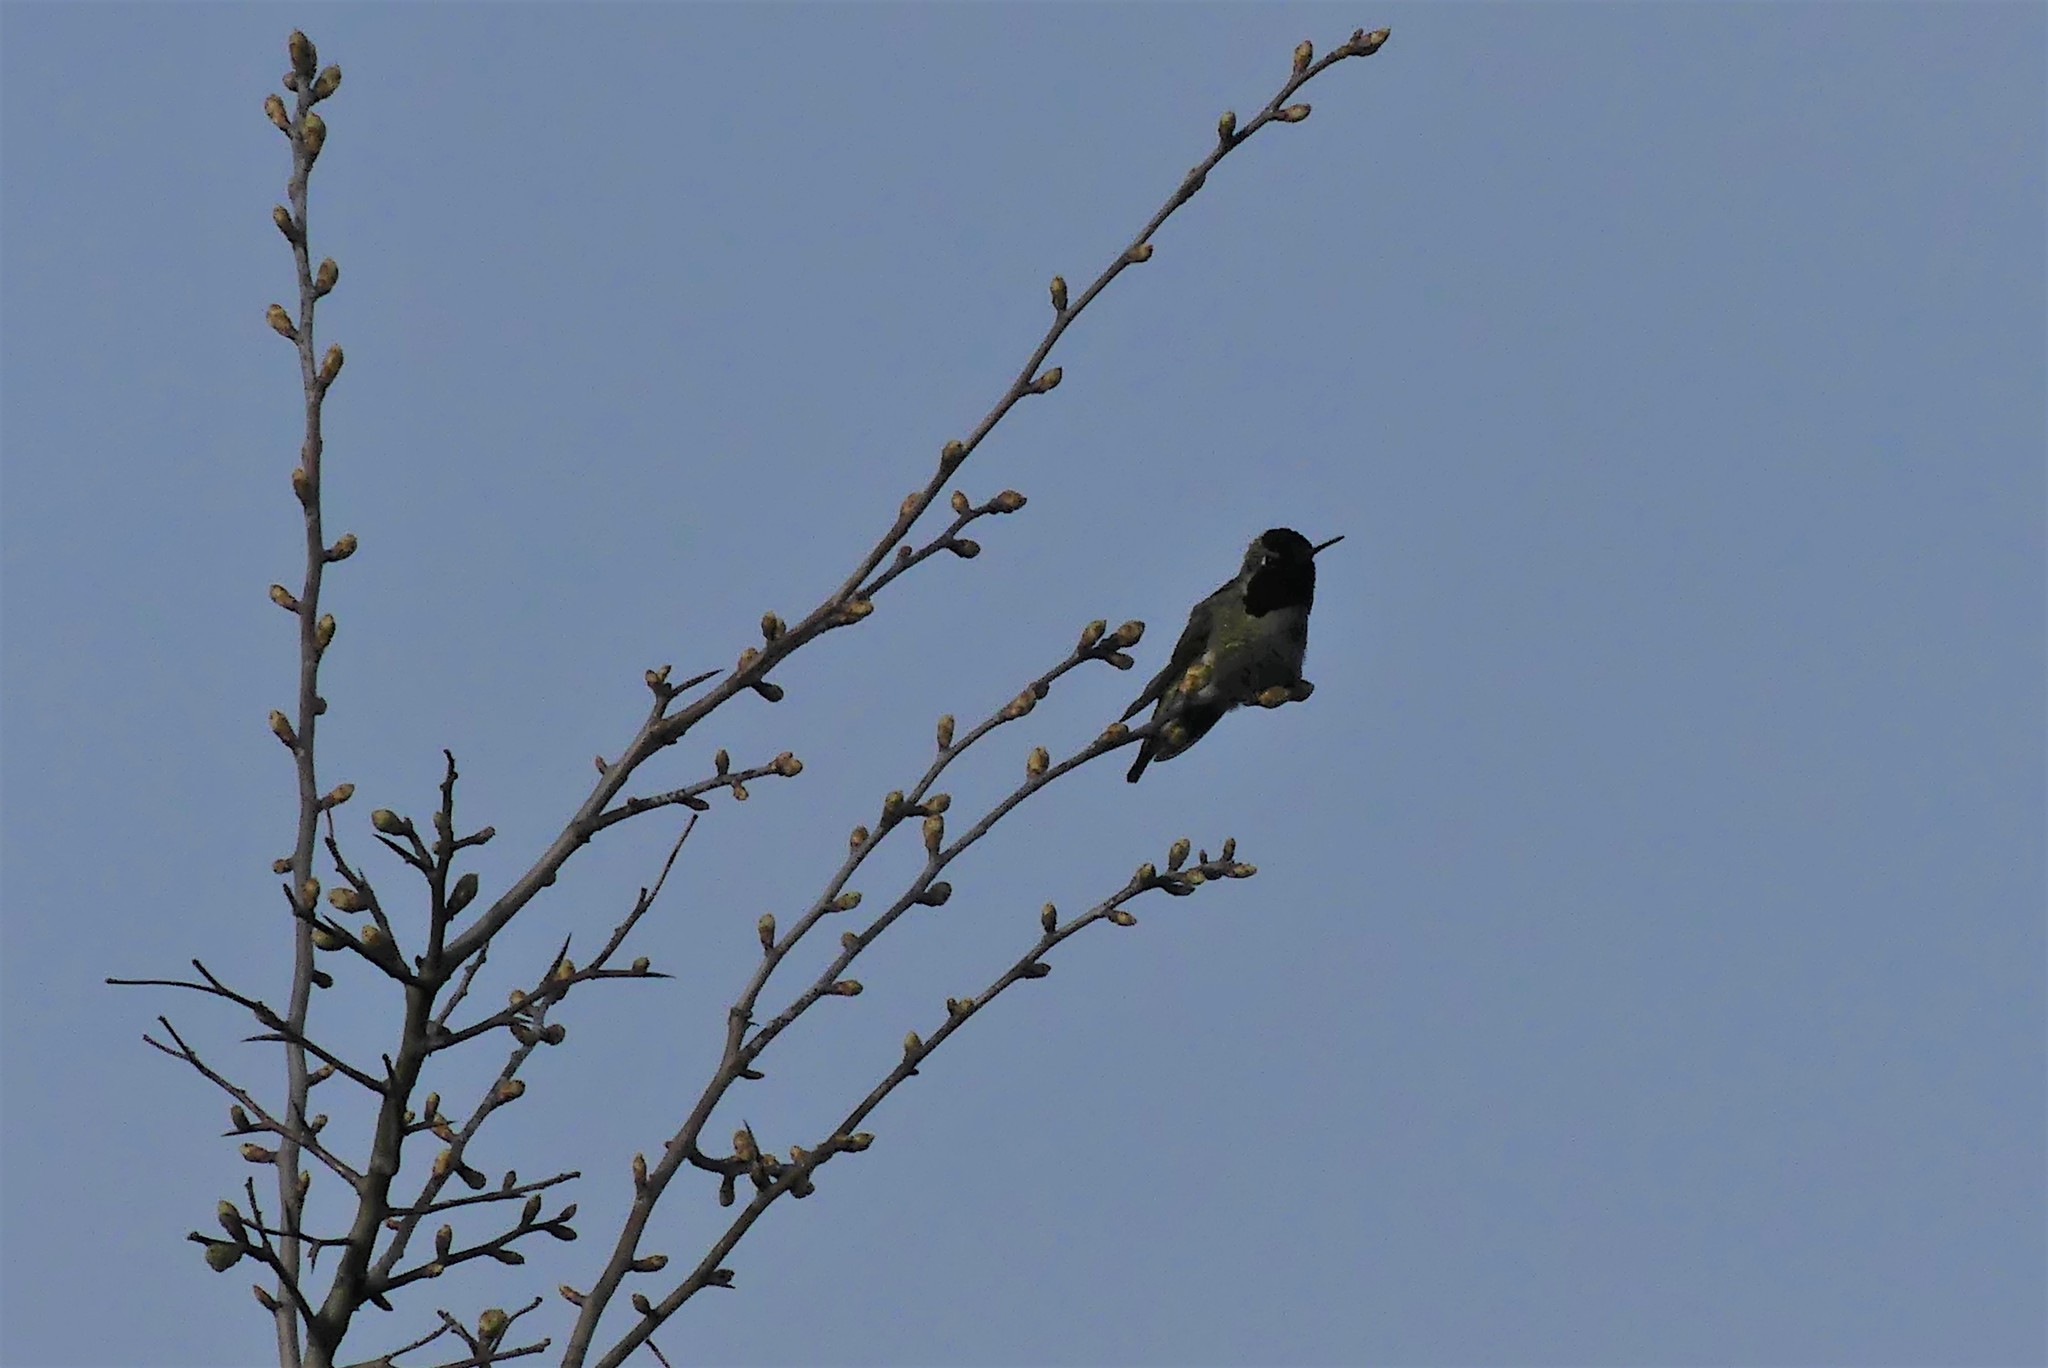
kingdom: Animalia
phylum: Chordata
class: Aves
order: Apodiformes
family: Trochilidae
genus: Calypte
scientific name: Calypte anna
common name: Anna's hummingbird
